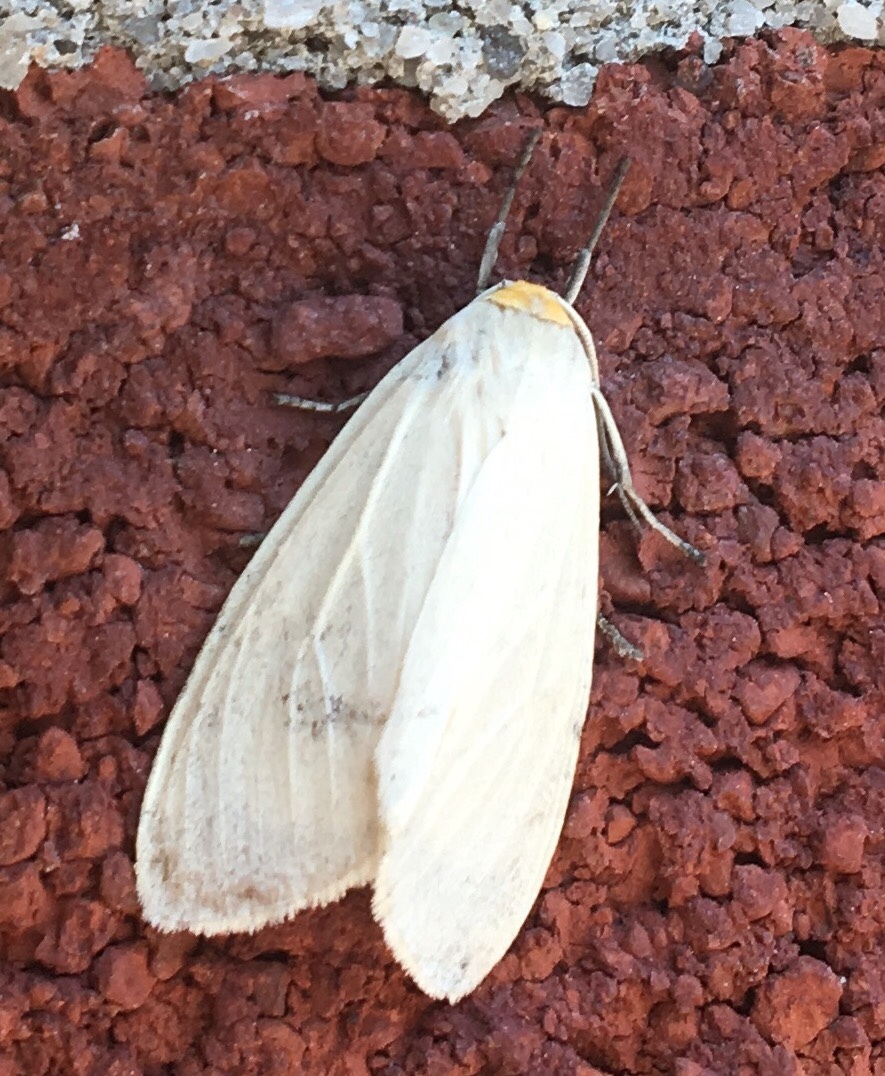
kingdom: Animalia
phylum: Arthropoda
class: Insecta
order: Lepidoptera
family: Erebidae
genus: Cycnia
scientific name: Cycnia oregonensis
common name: Oregon cycnia moth
